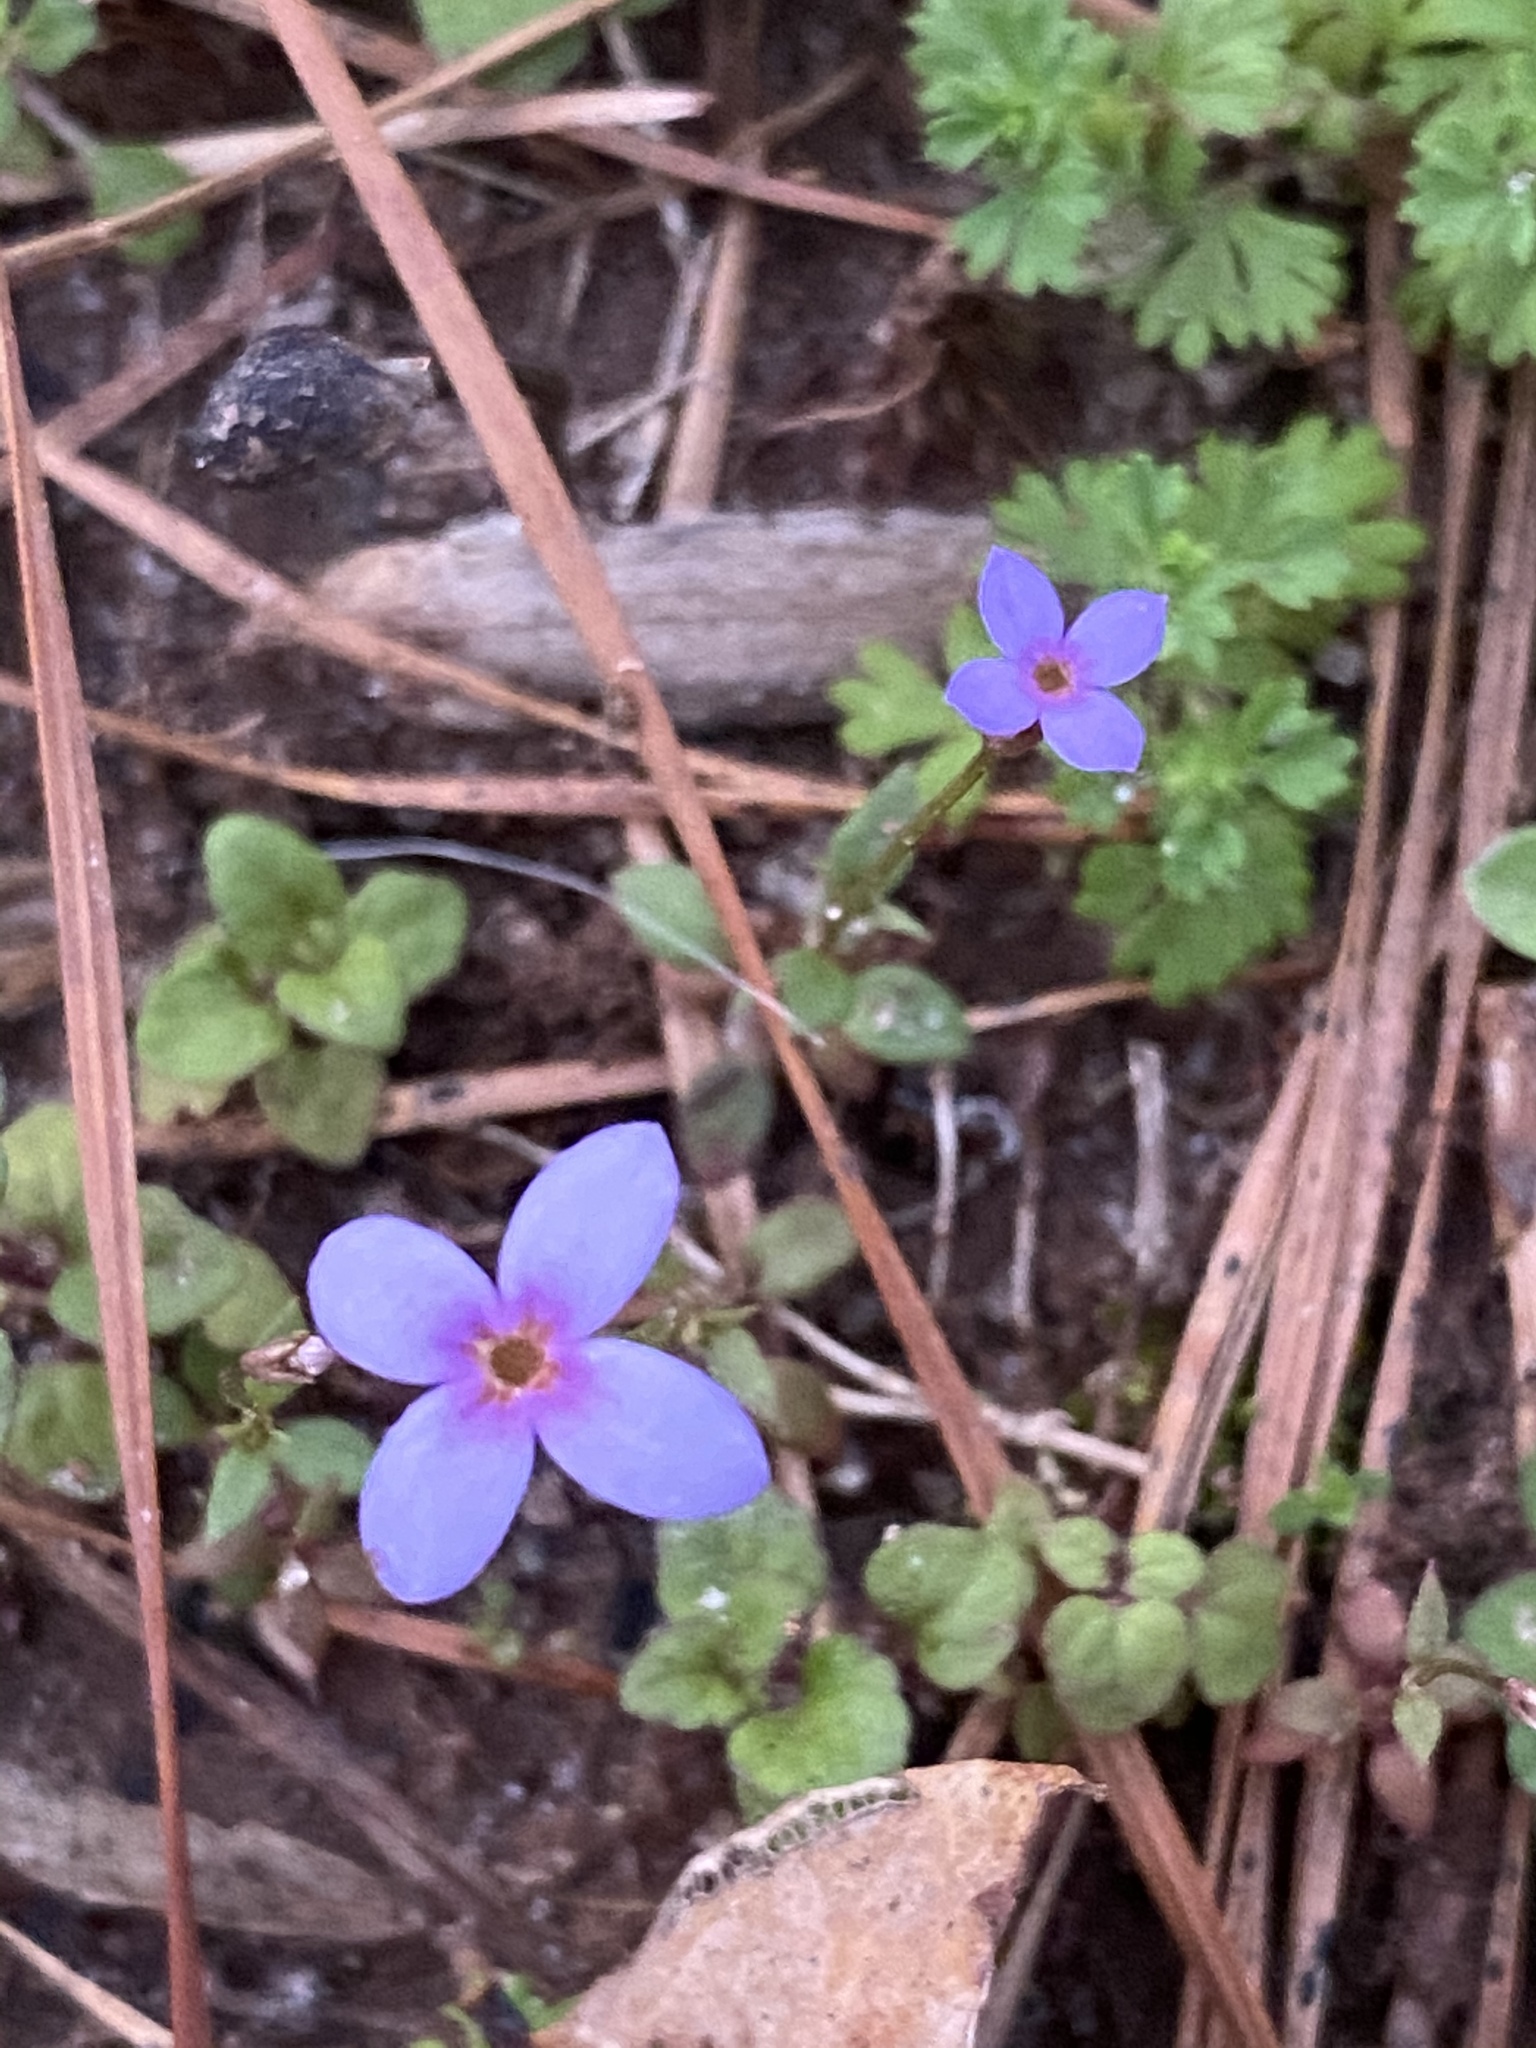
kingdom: Plantae
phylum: Tracheophyta
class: Magnoliopsida
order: Gentianales
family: Rubiaceae
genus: Houstonia
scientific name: Houstonia pusilla
